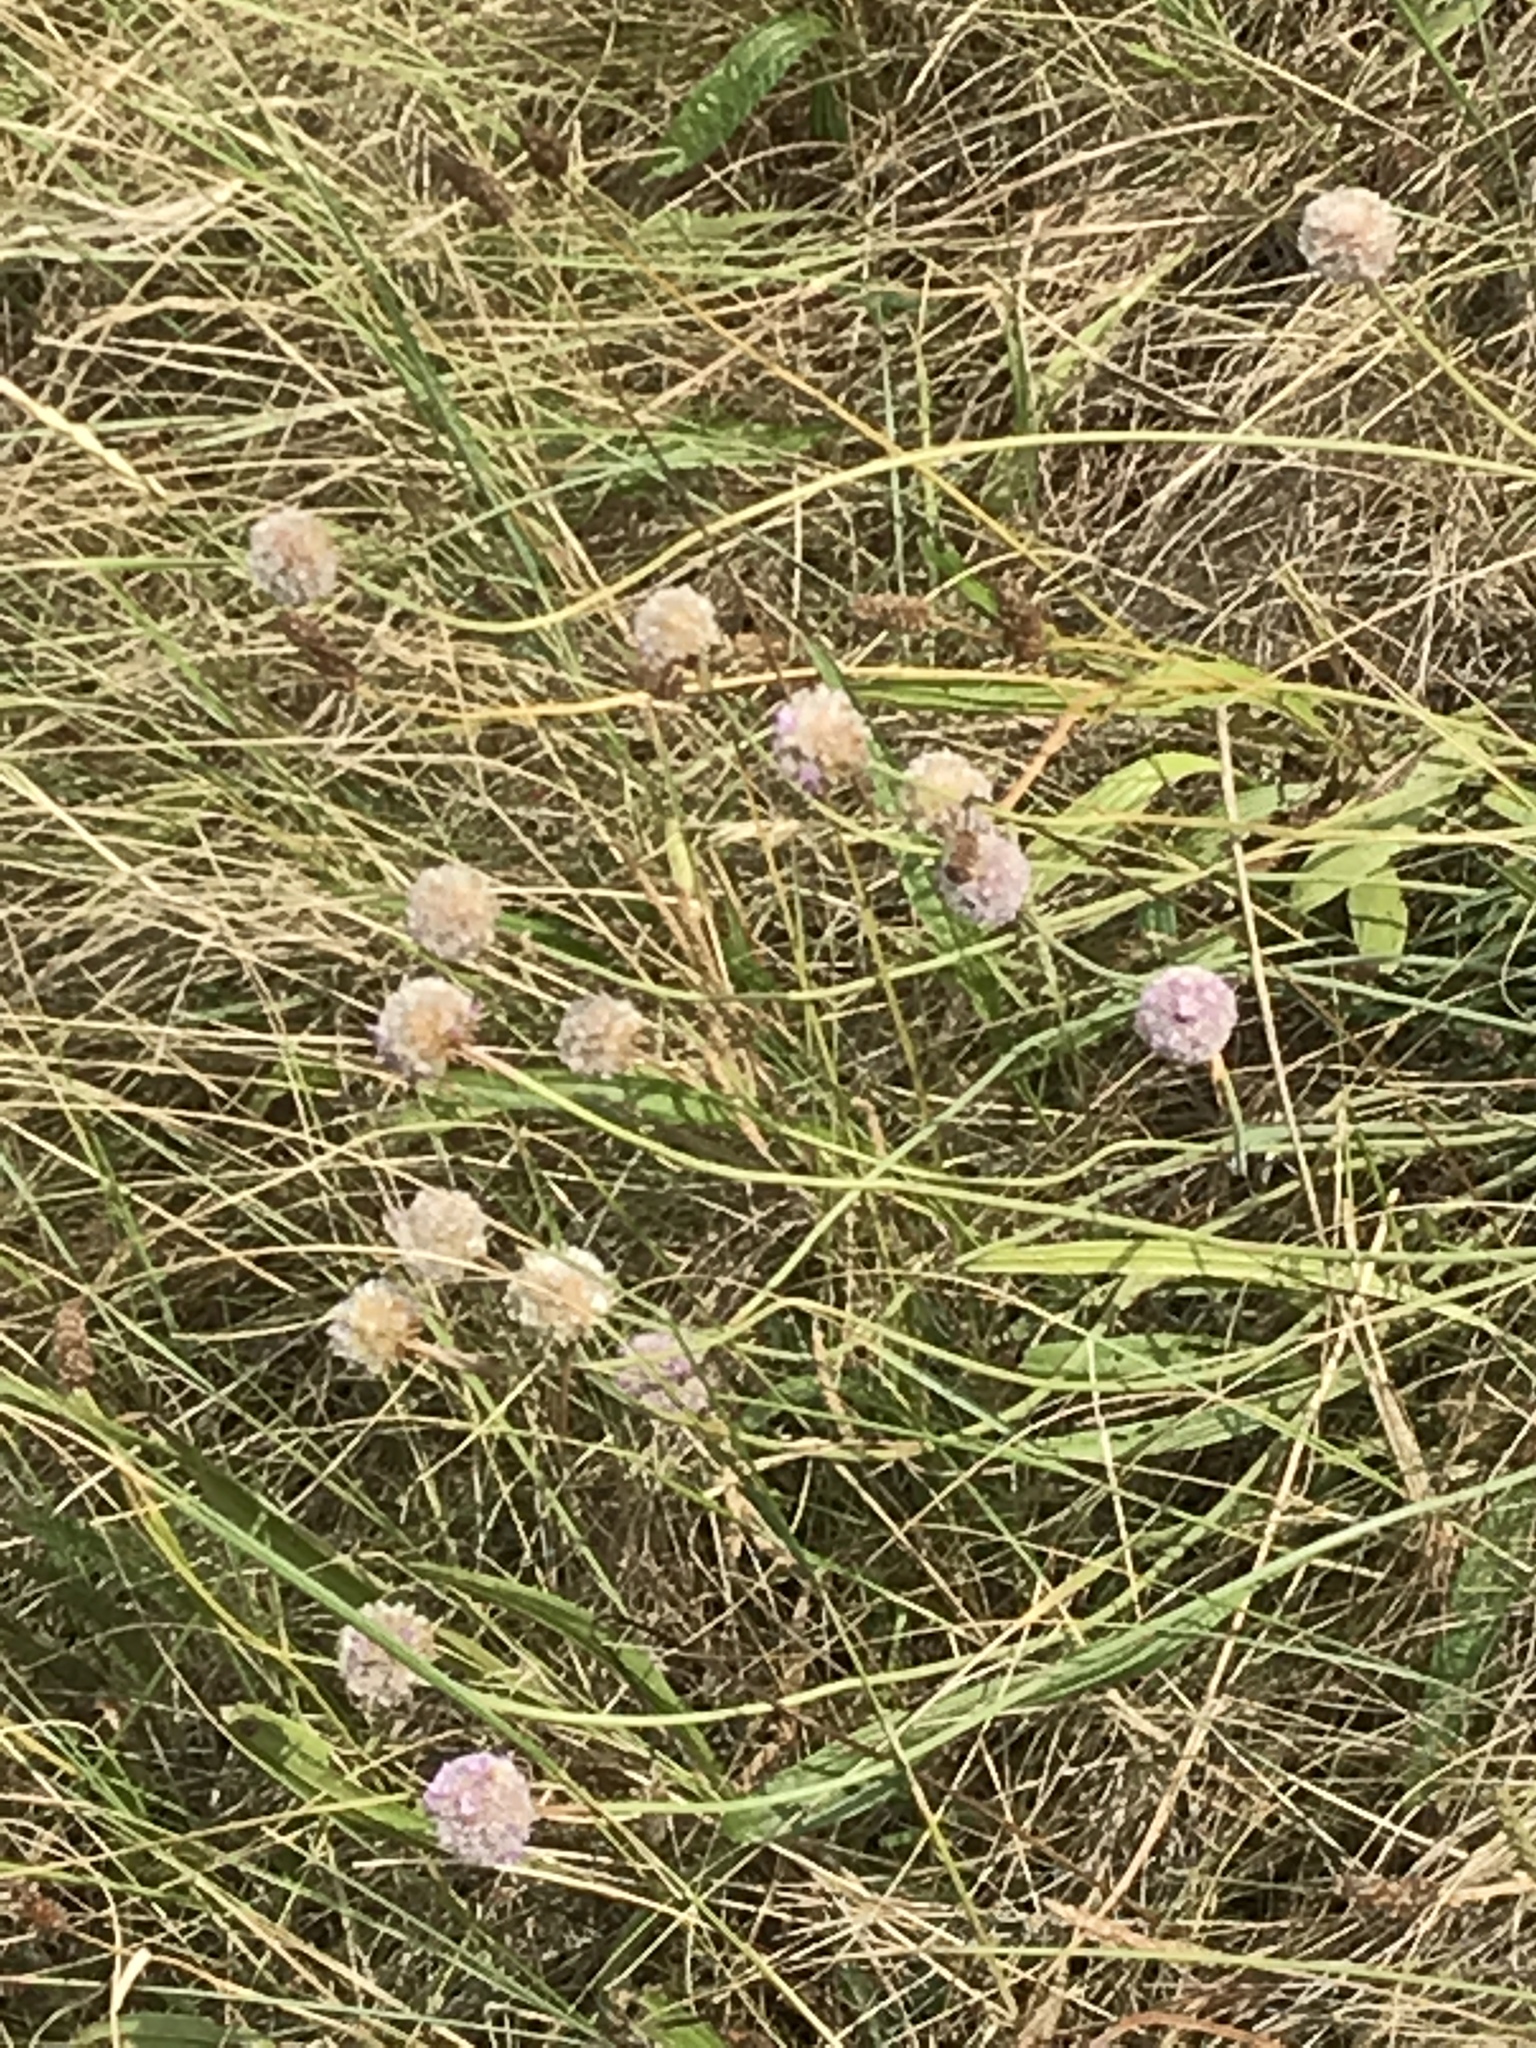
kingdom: Plantae
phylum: Tracheophyta
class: Magnoliopsida
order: Caryophyllales
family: Plumbaginaceae
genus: Armeria
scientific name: Armeria maritima
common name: Thrift
